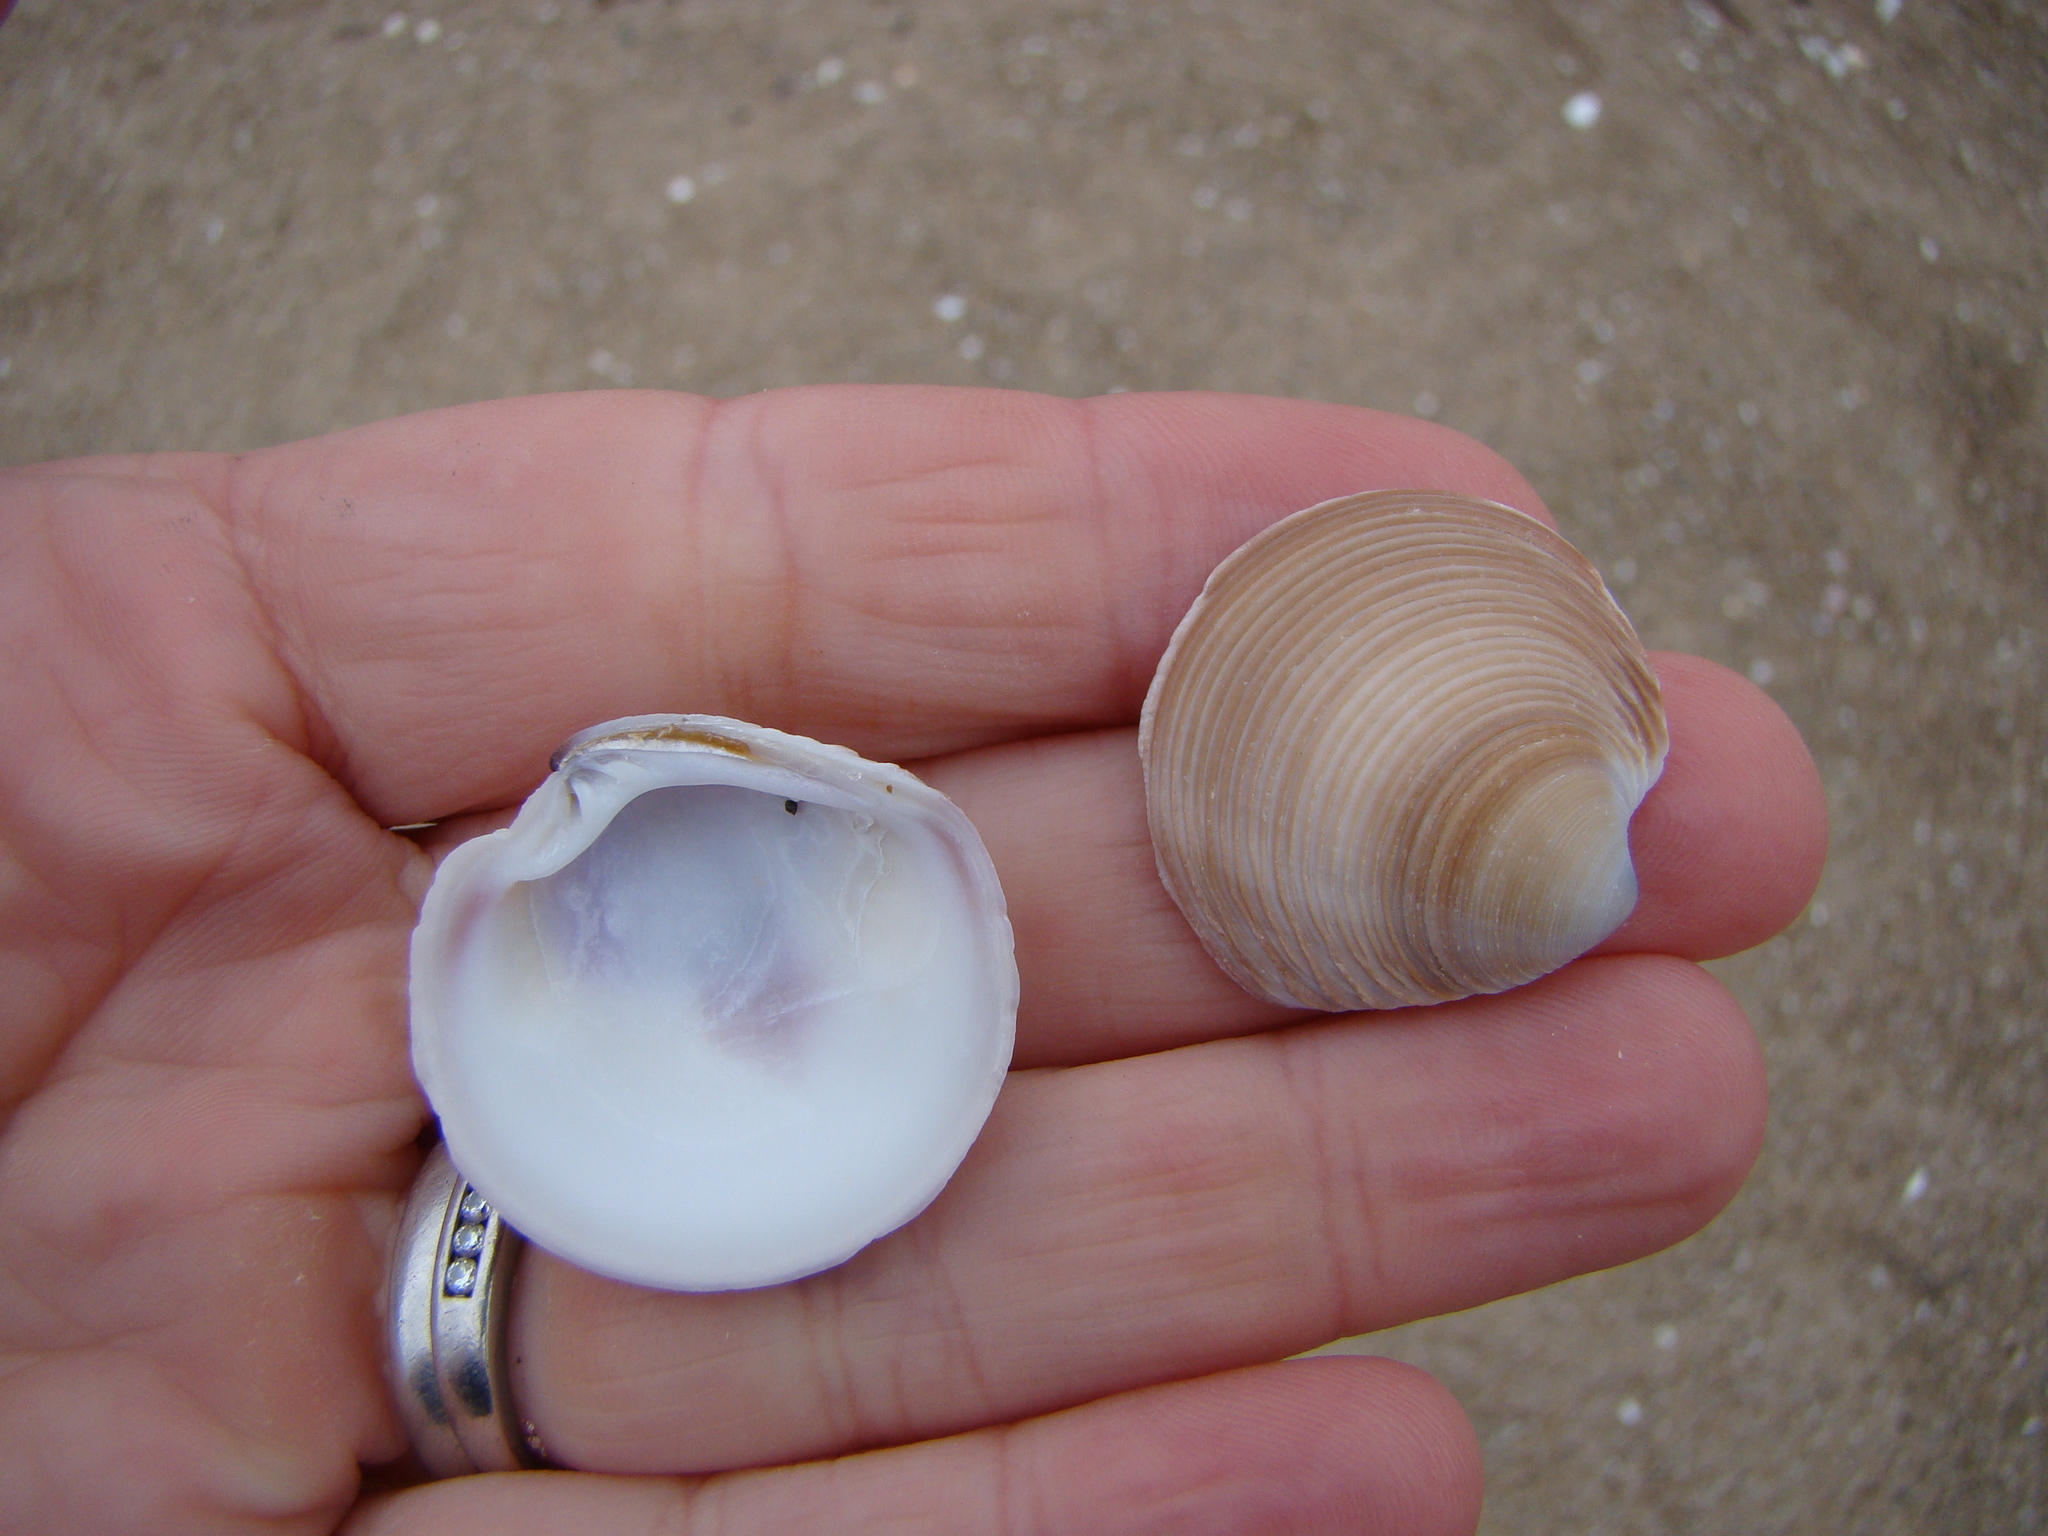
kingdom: Animalia
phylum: Mollusca
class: Bivalvia
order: Venerida
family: Veneridae
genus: Dosinia
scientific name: Dosinia anus
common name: Old-woman dosinia
